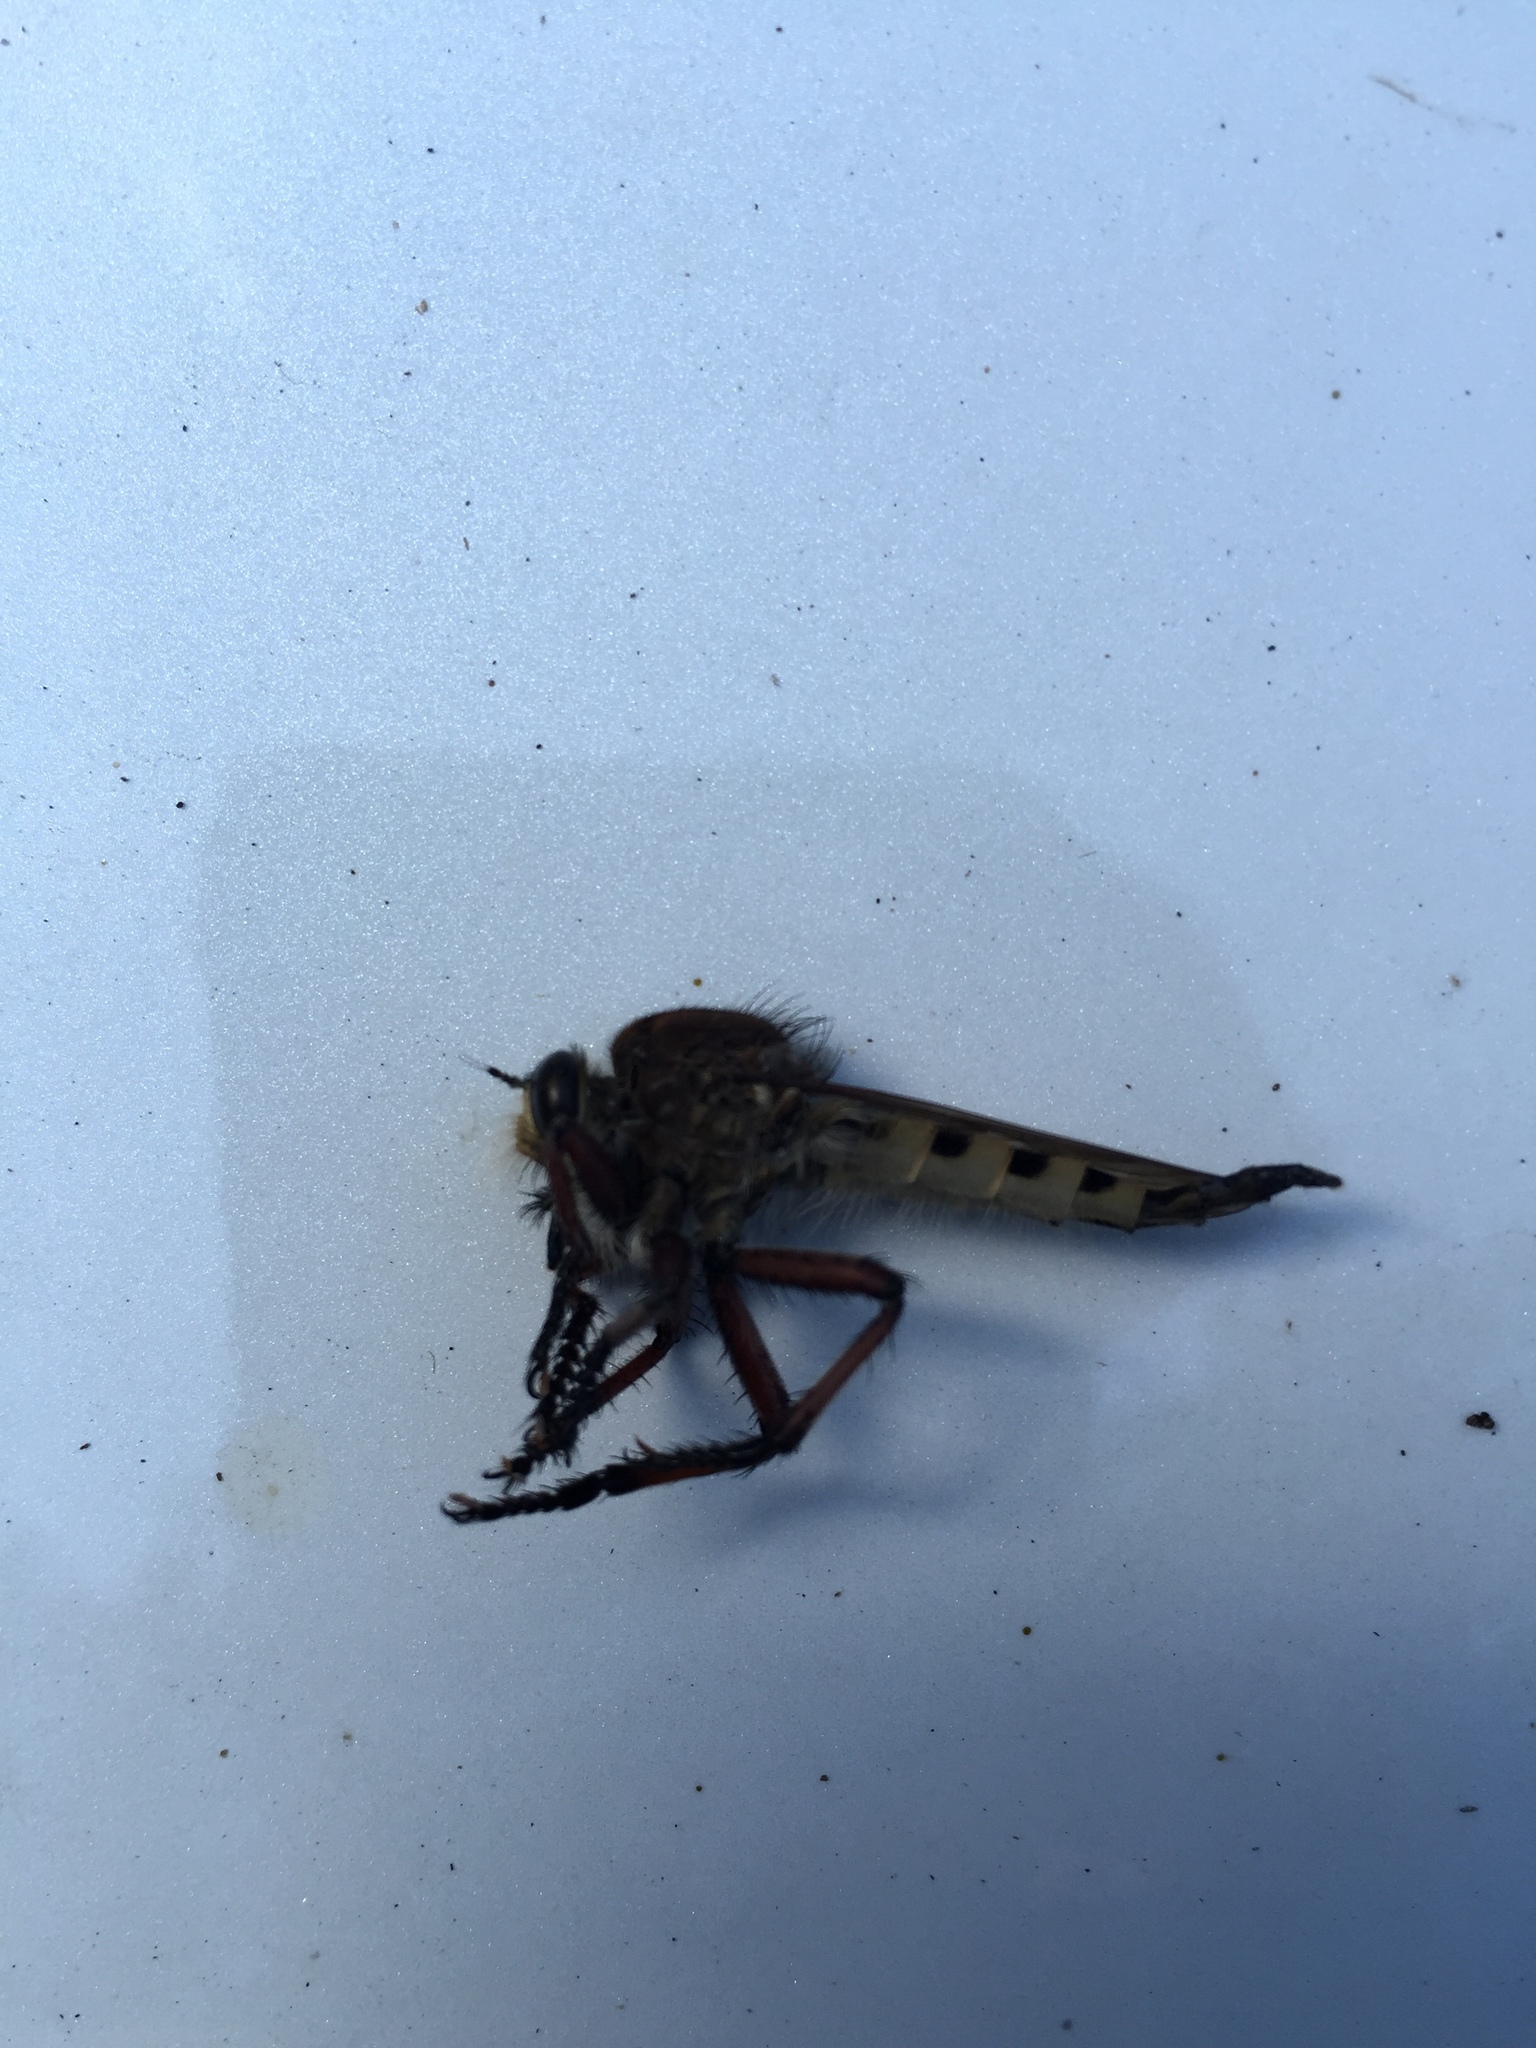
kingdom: Animalia
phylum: Arthropoda
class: Insecta
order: Diptera
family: Asilidae
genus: Promachus
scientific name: Promachus hinei
